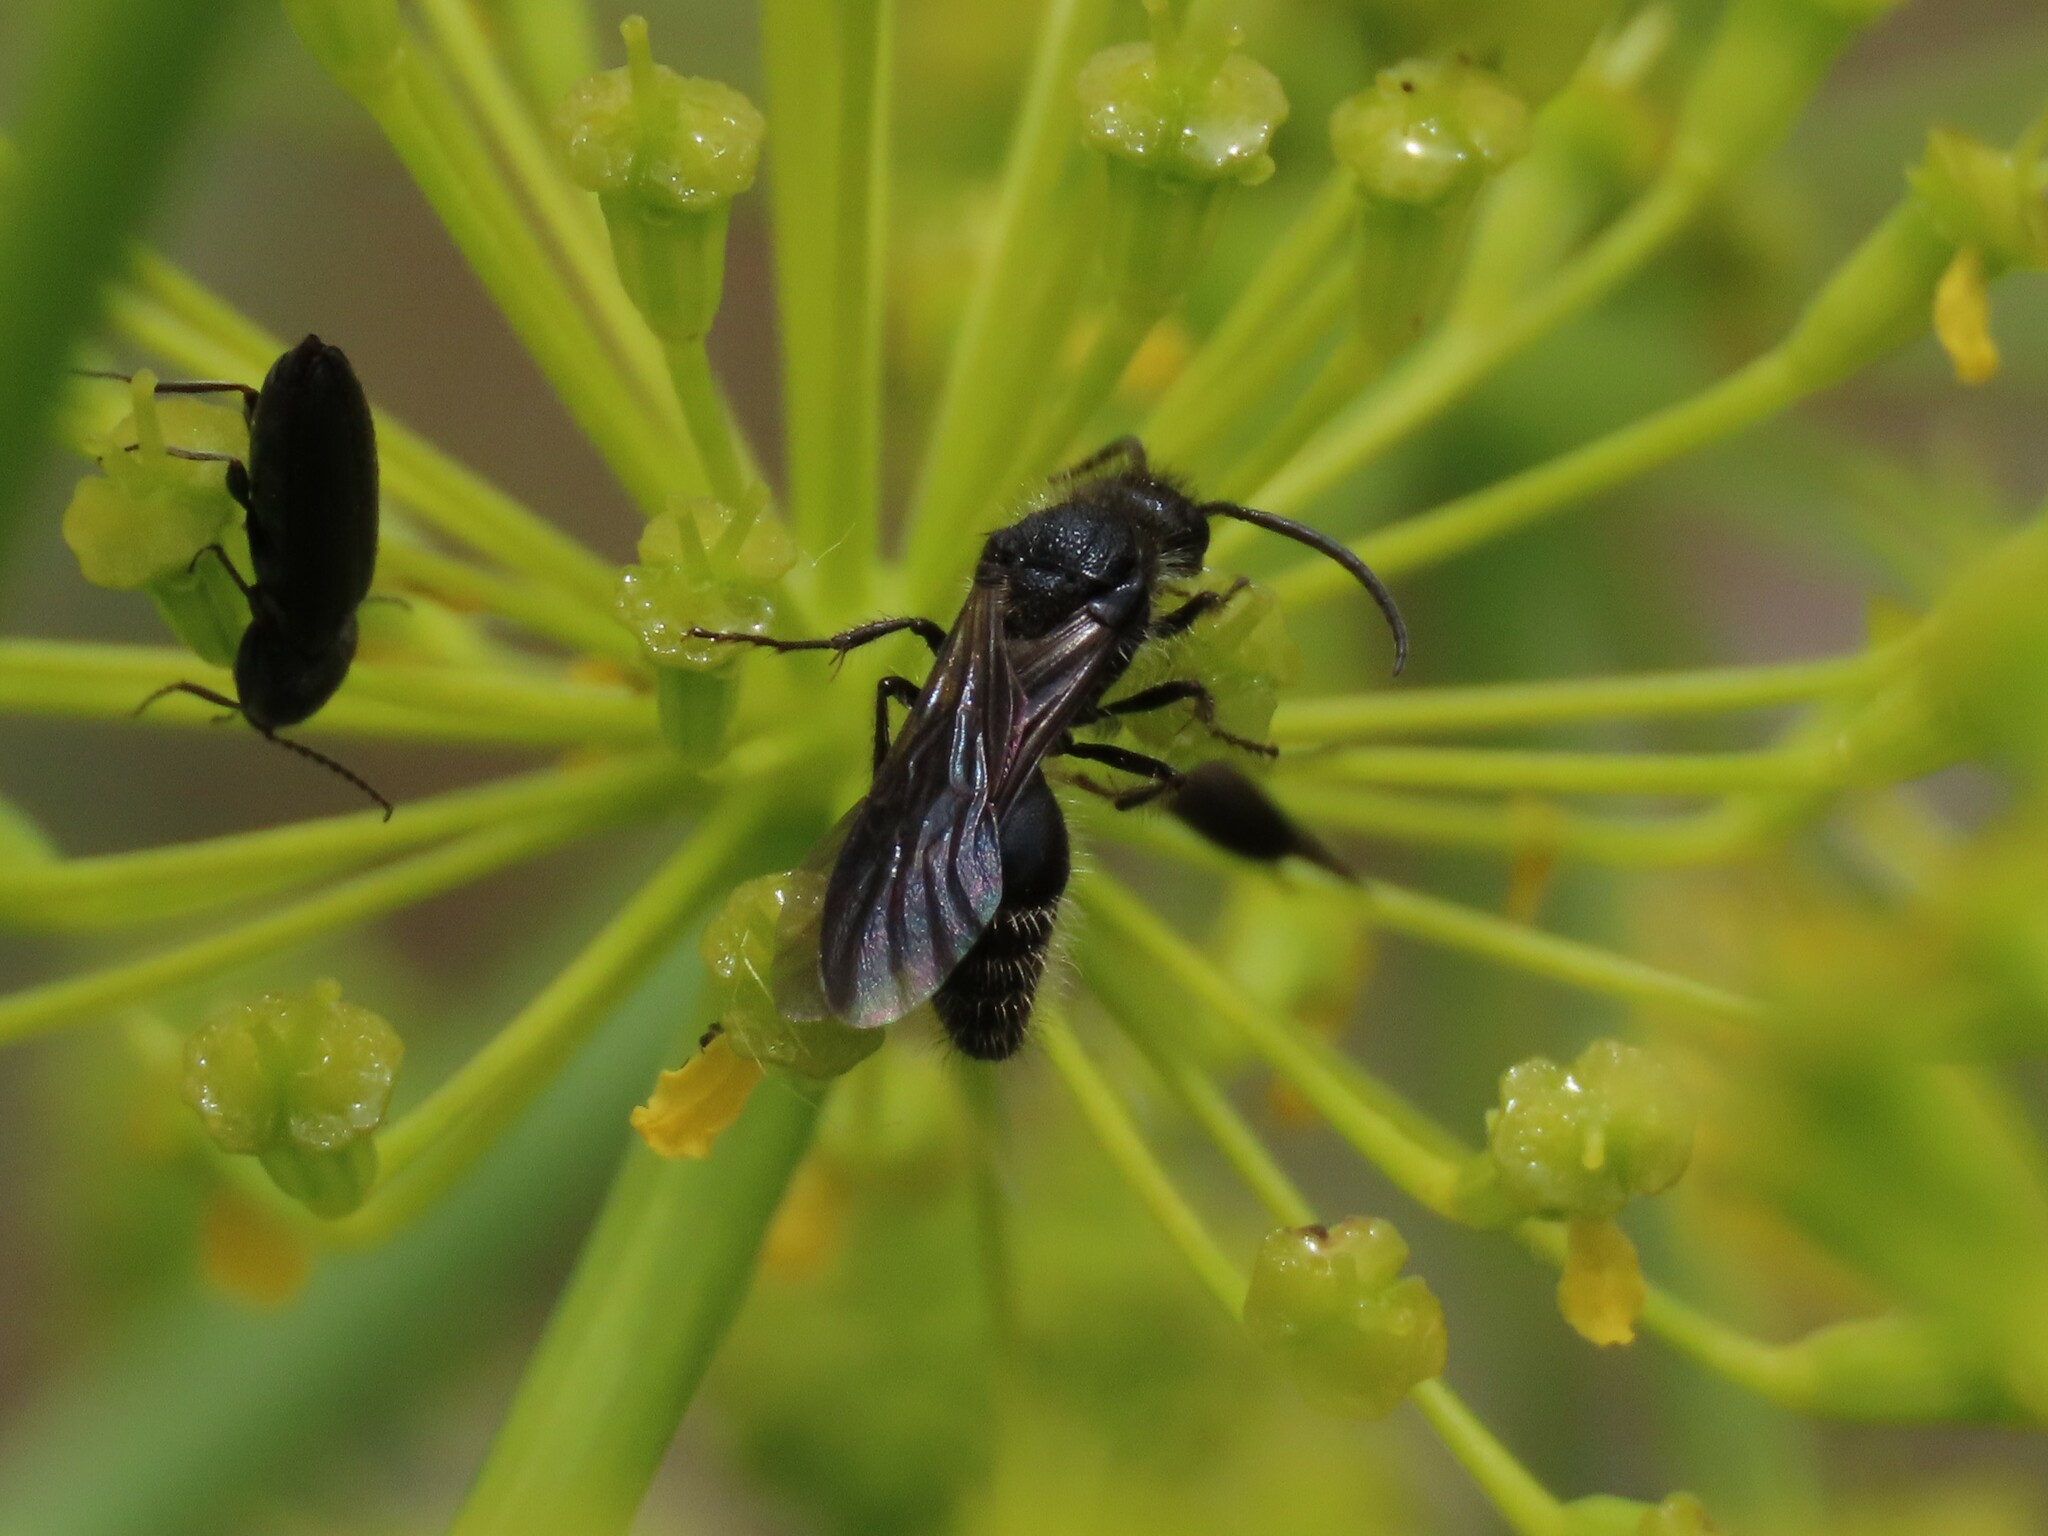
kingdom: Animalia
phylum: Arthropoda
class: Insecta
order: Hymenoptera
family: Mutillidae
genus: Tropidotilla
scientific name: Tropidotilla litoralis
